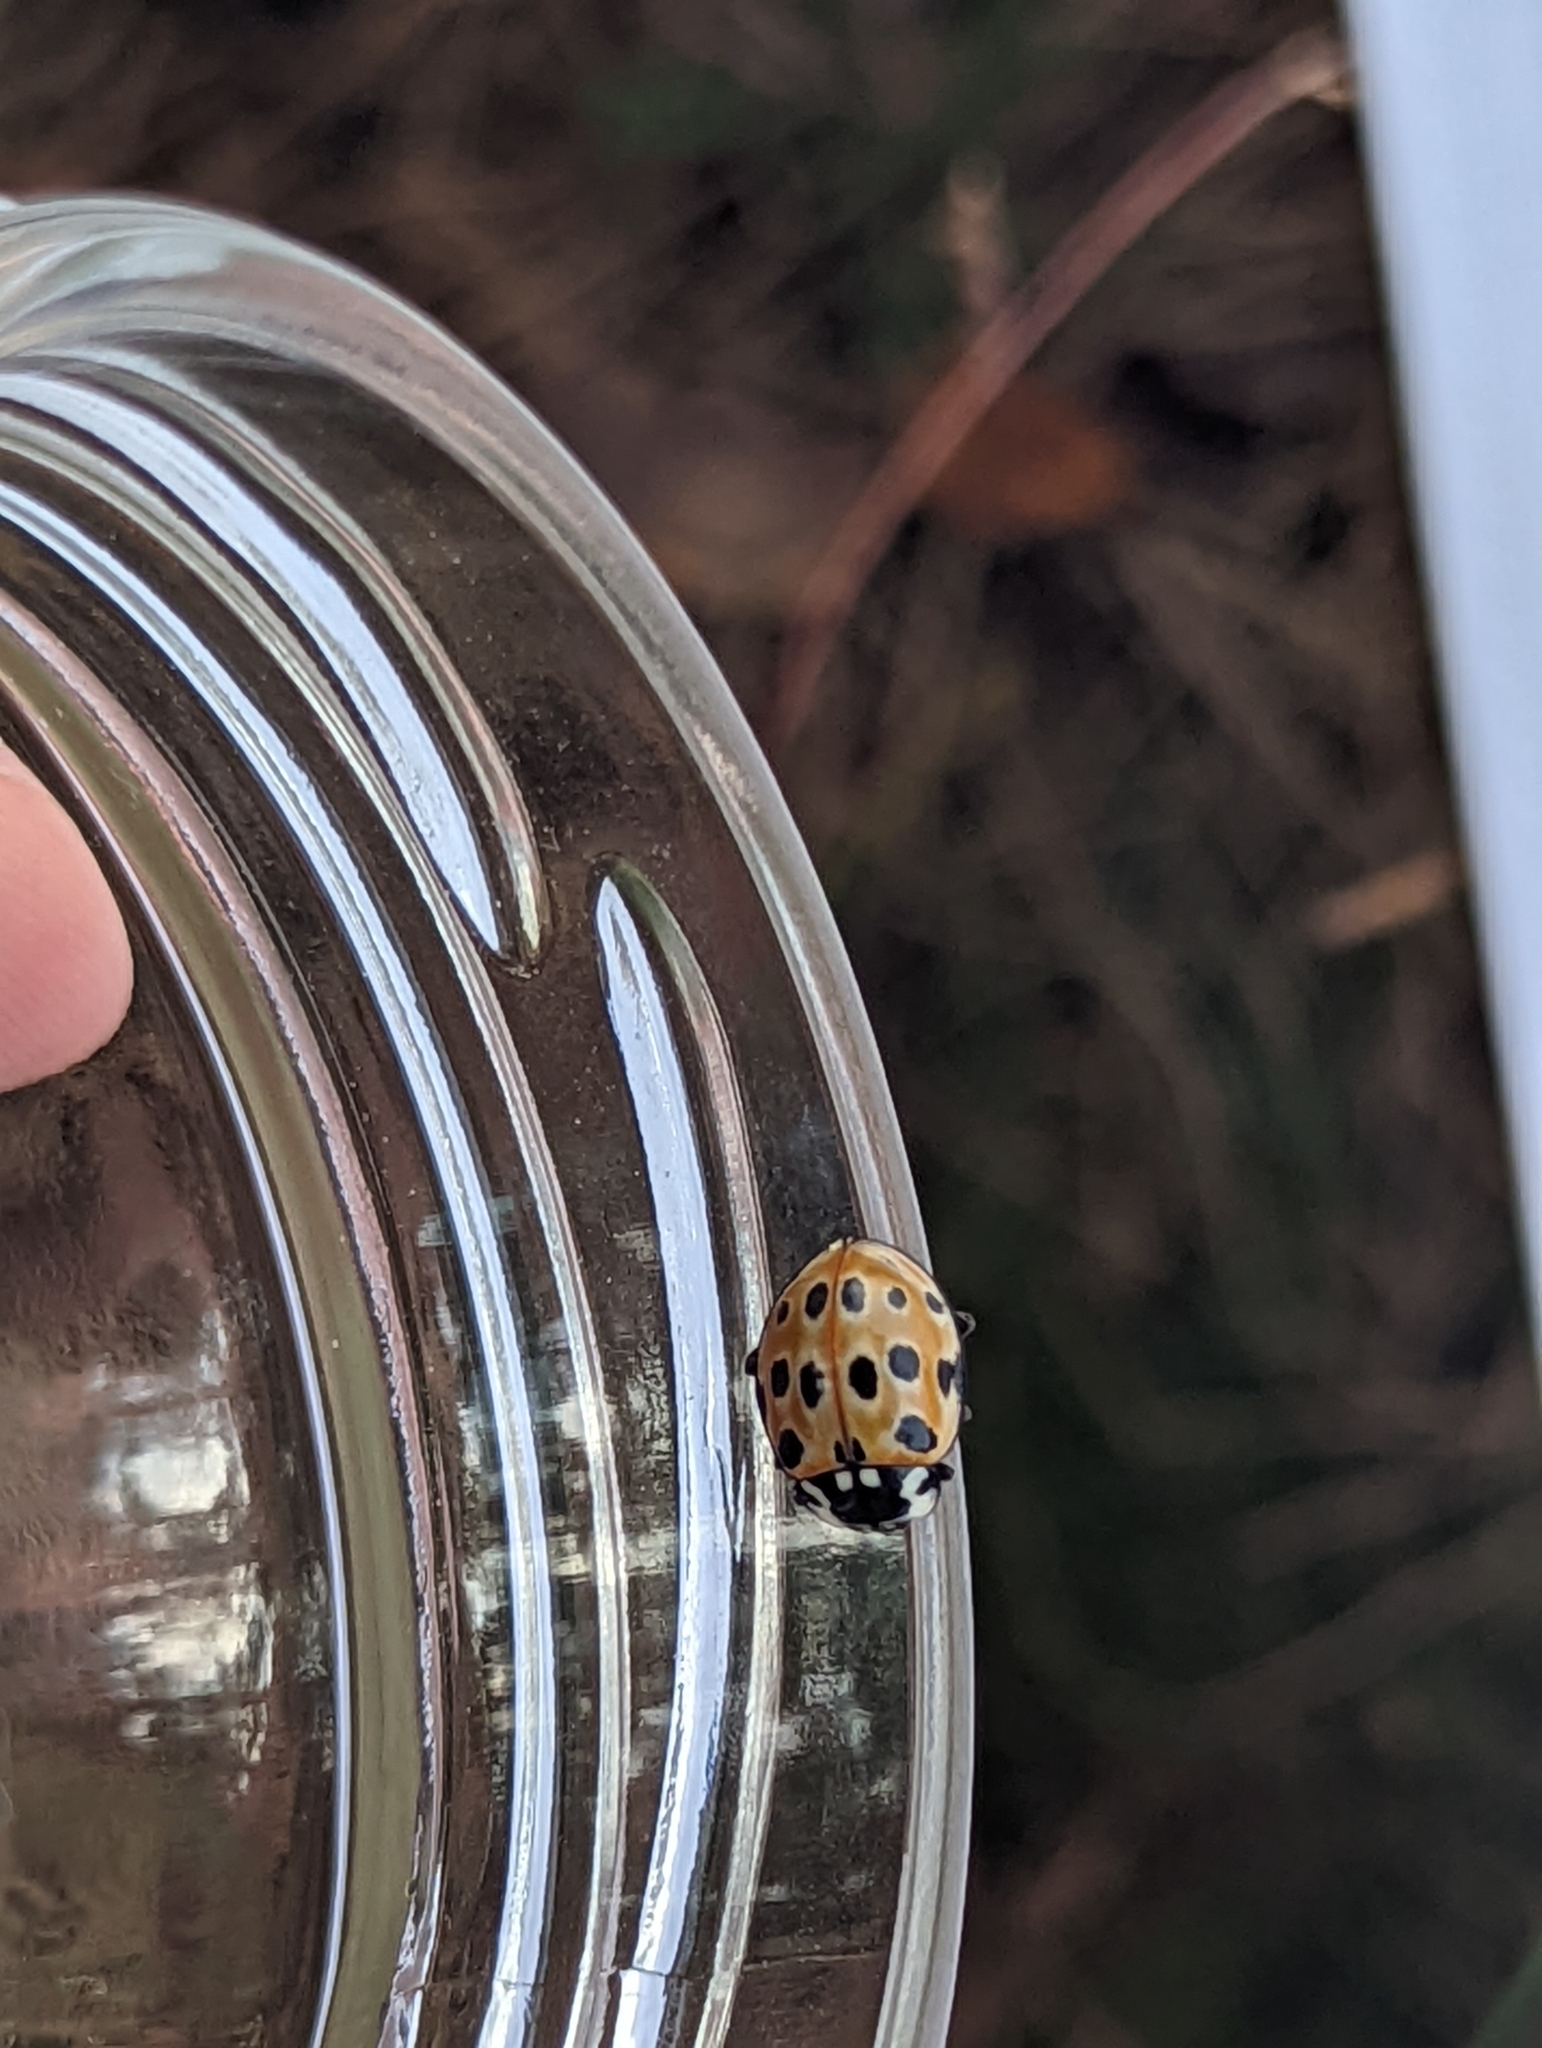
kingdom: Animalia
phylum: Arthropoda
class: Insecta
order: Coleoptera
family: Coccinellidae
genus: Anatis
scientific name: Anatis ocellata
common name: Eyed ladybird
